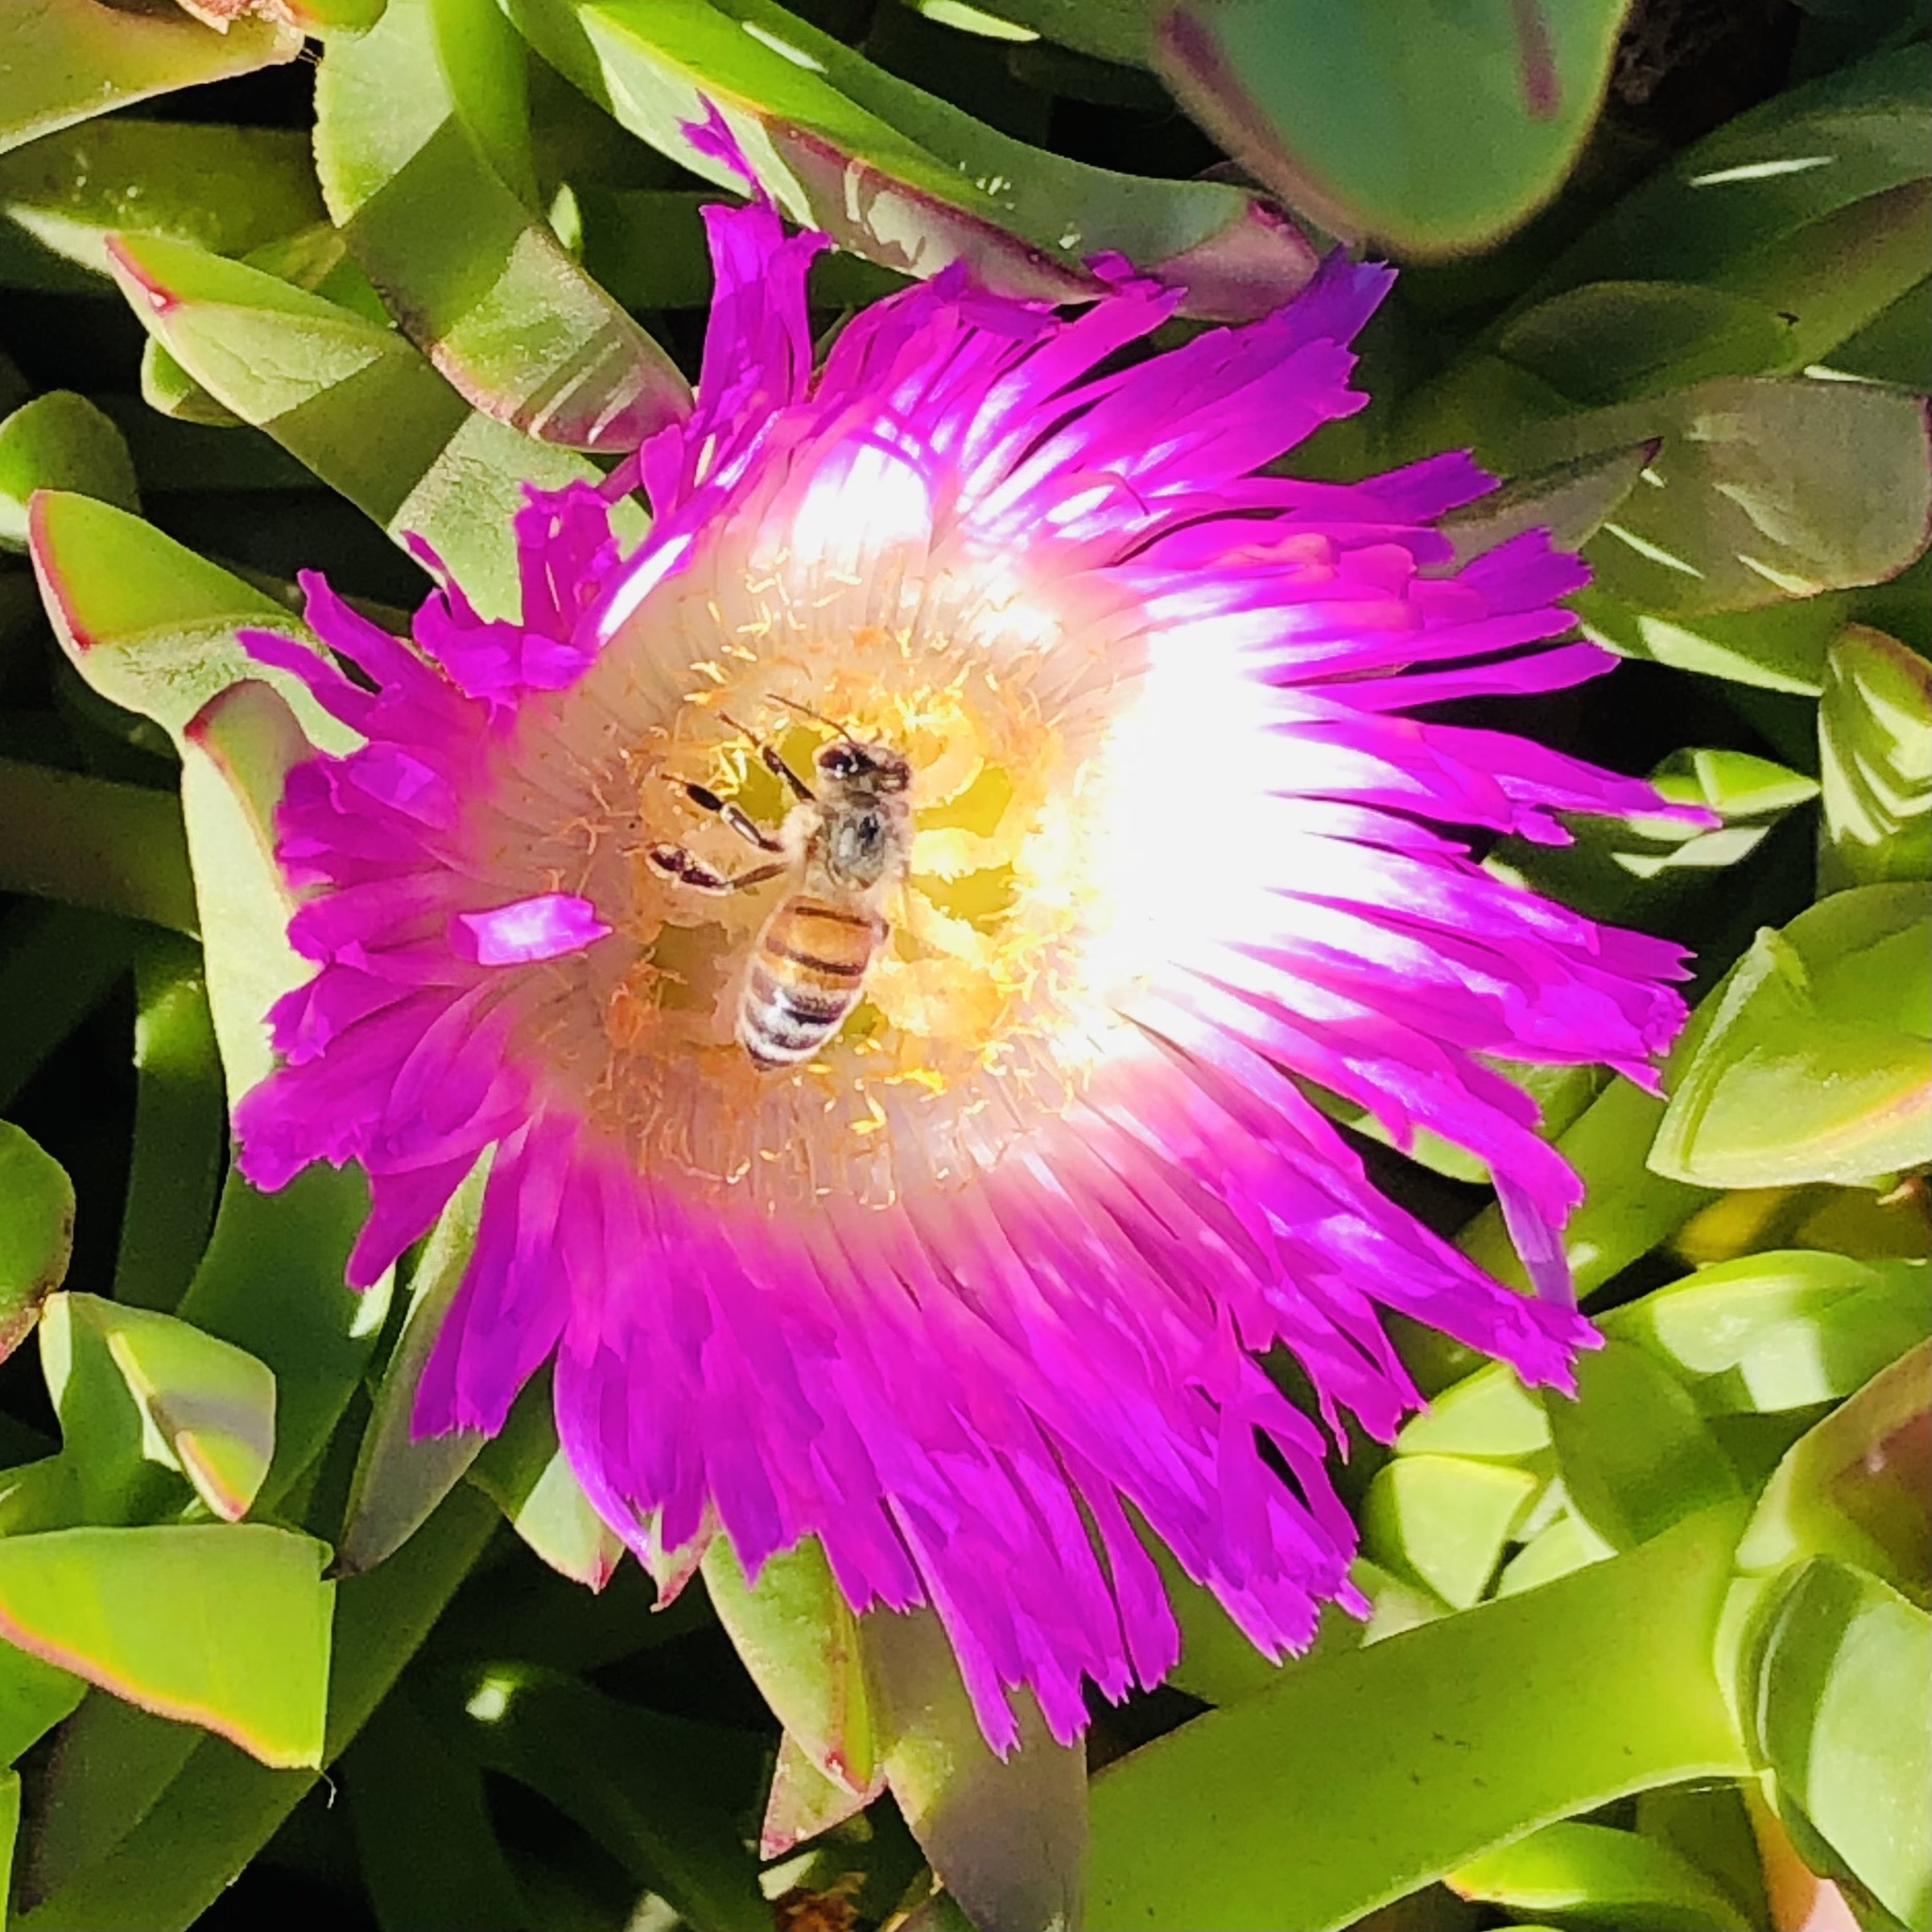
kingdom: Animalia
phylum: Arthropoda
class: Insecta
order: Hymenoptera
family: Apidae
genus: Apis
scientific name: Apis mellifera
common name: Honey bee
